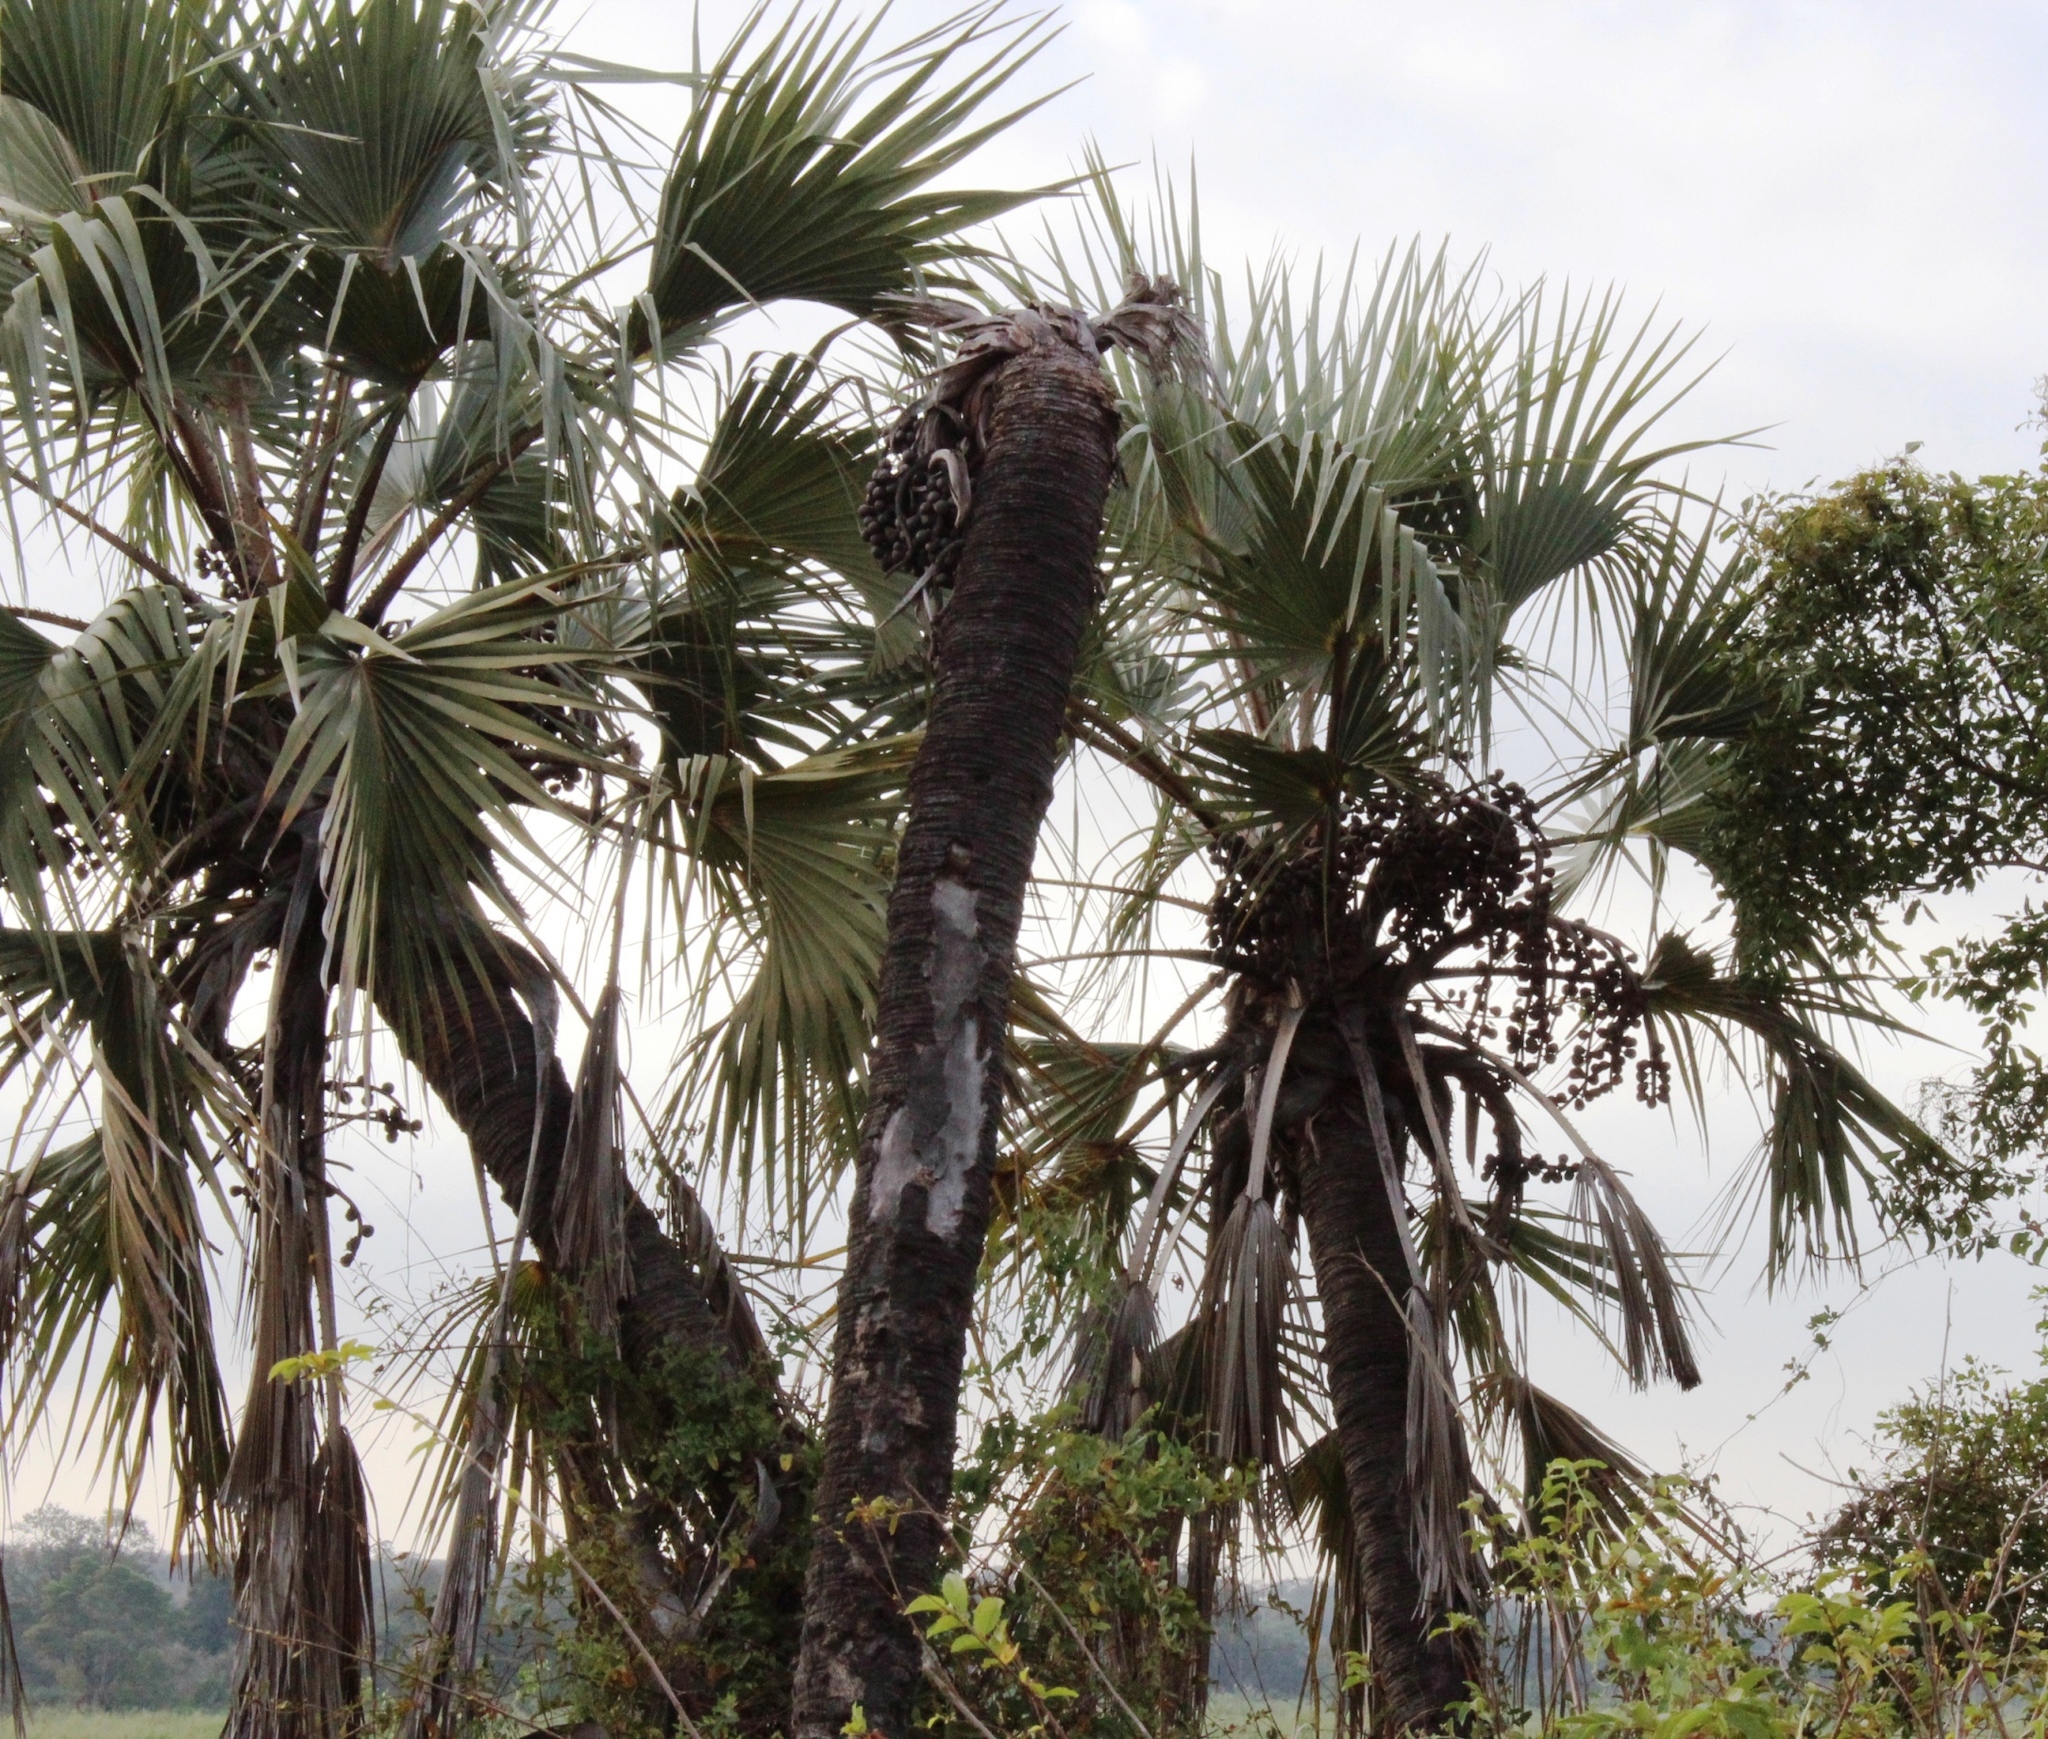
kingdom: Plantae
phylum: Tracheophyta
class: Liliopsida
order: Arecales
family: Arecaceae
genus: Hyphaene
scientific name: Hyphaene coriacea
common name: Ilala palm
